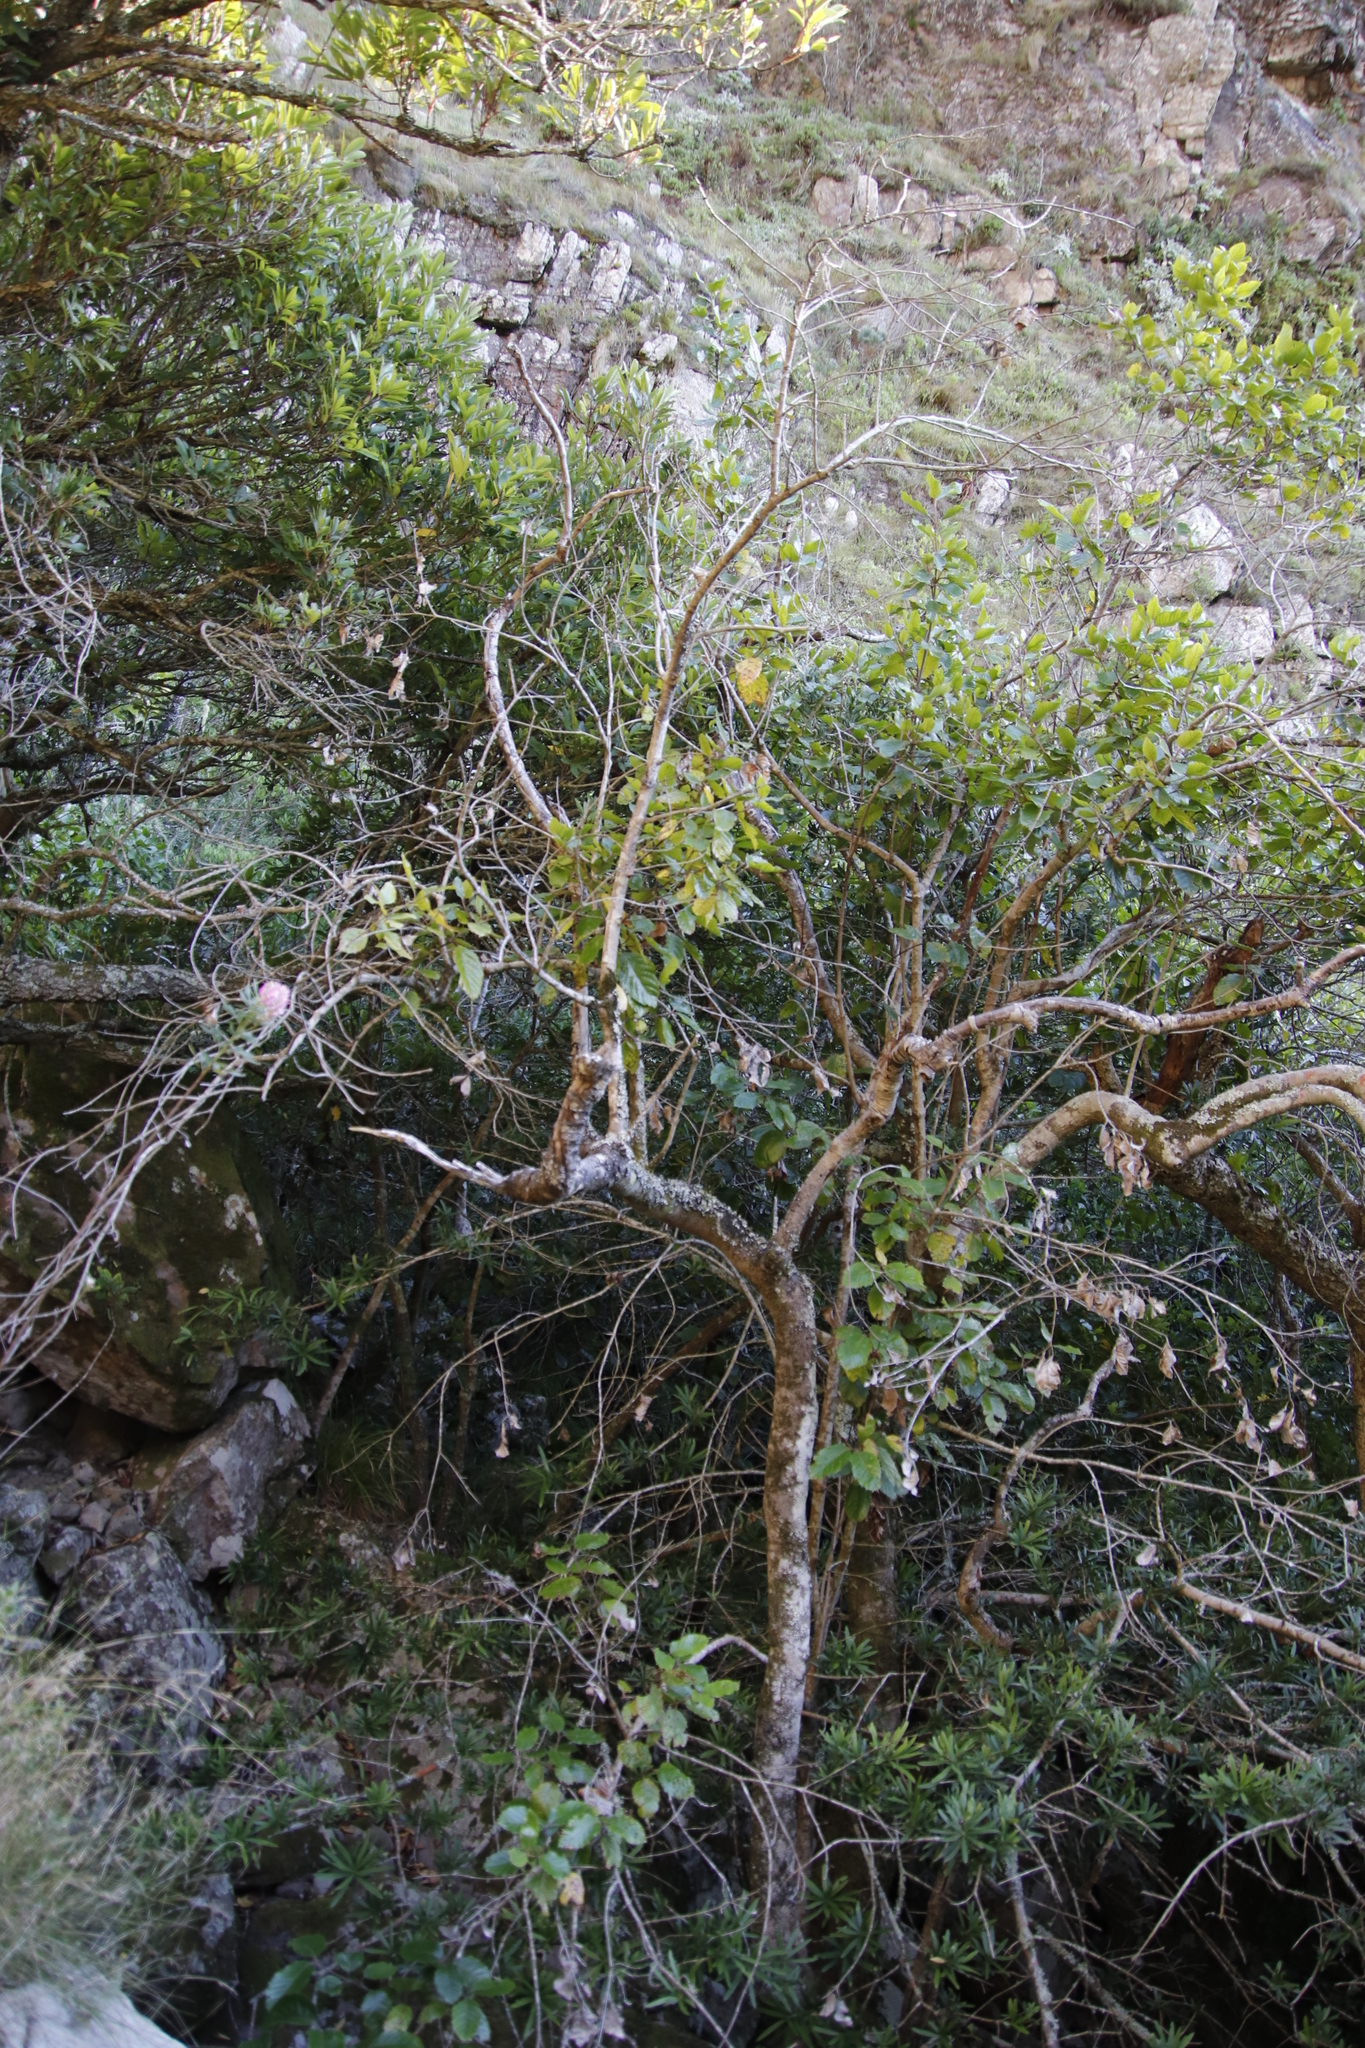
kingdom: Plantae
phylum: Tracheophyta
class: Magnoliopsida
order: Cornales
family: Curtisiaceae
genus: Curtisia
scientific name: Curtisia dentata
